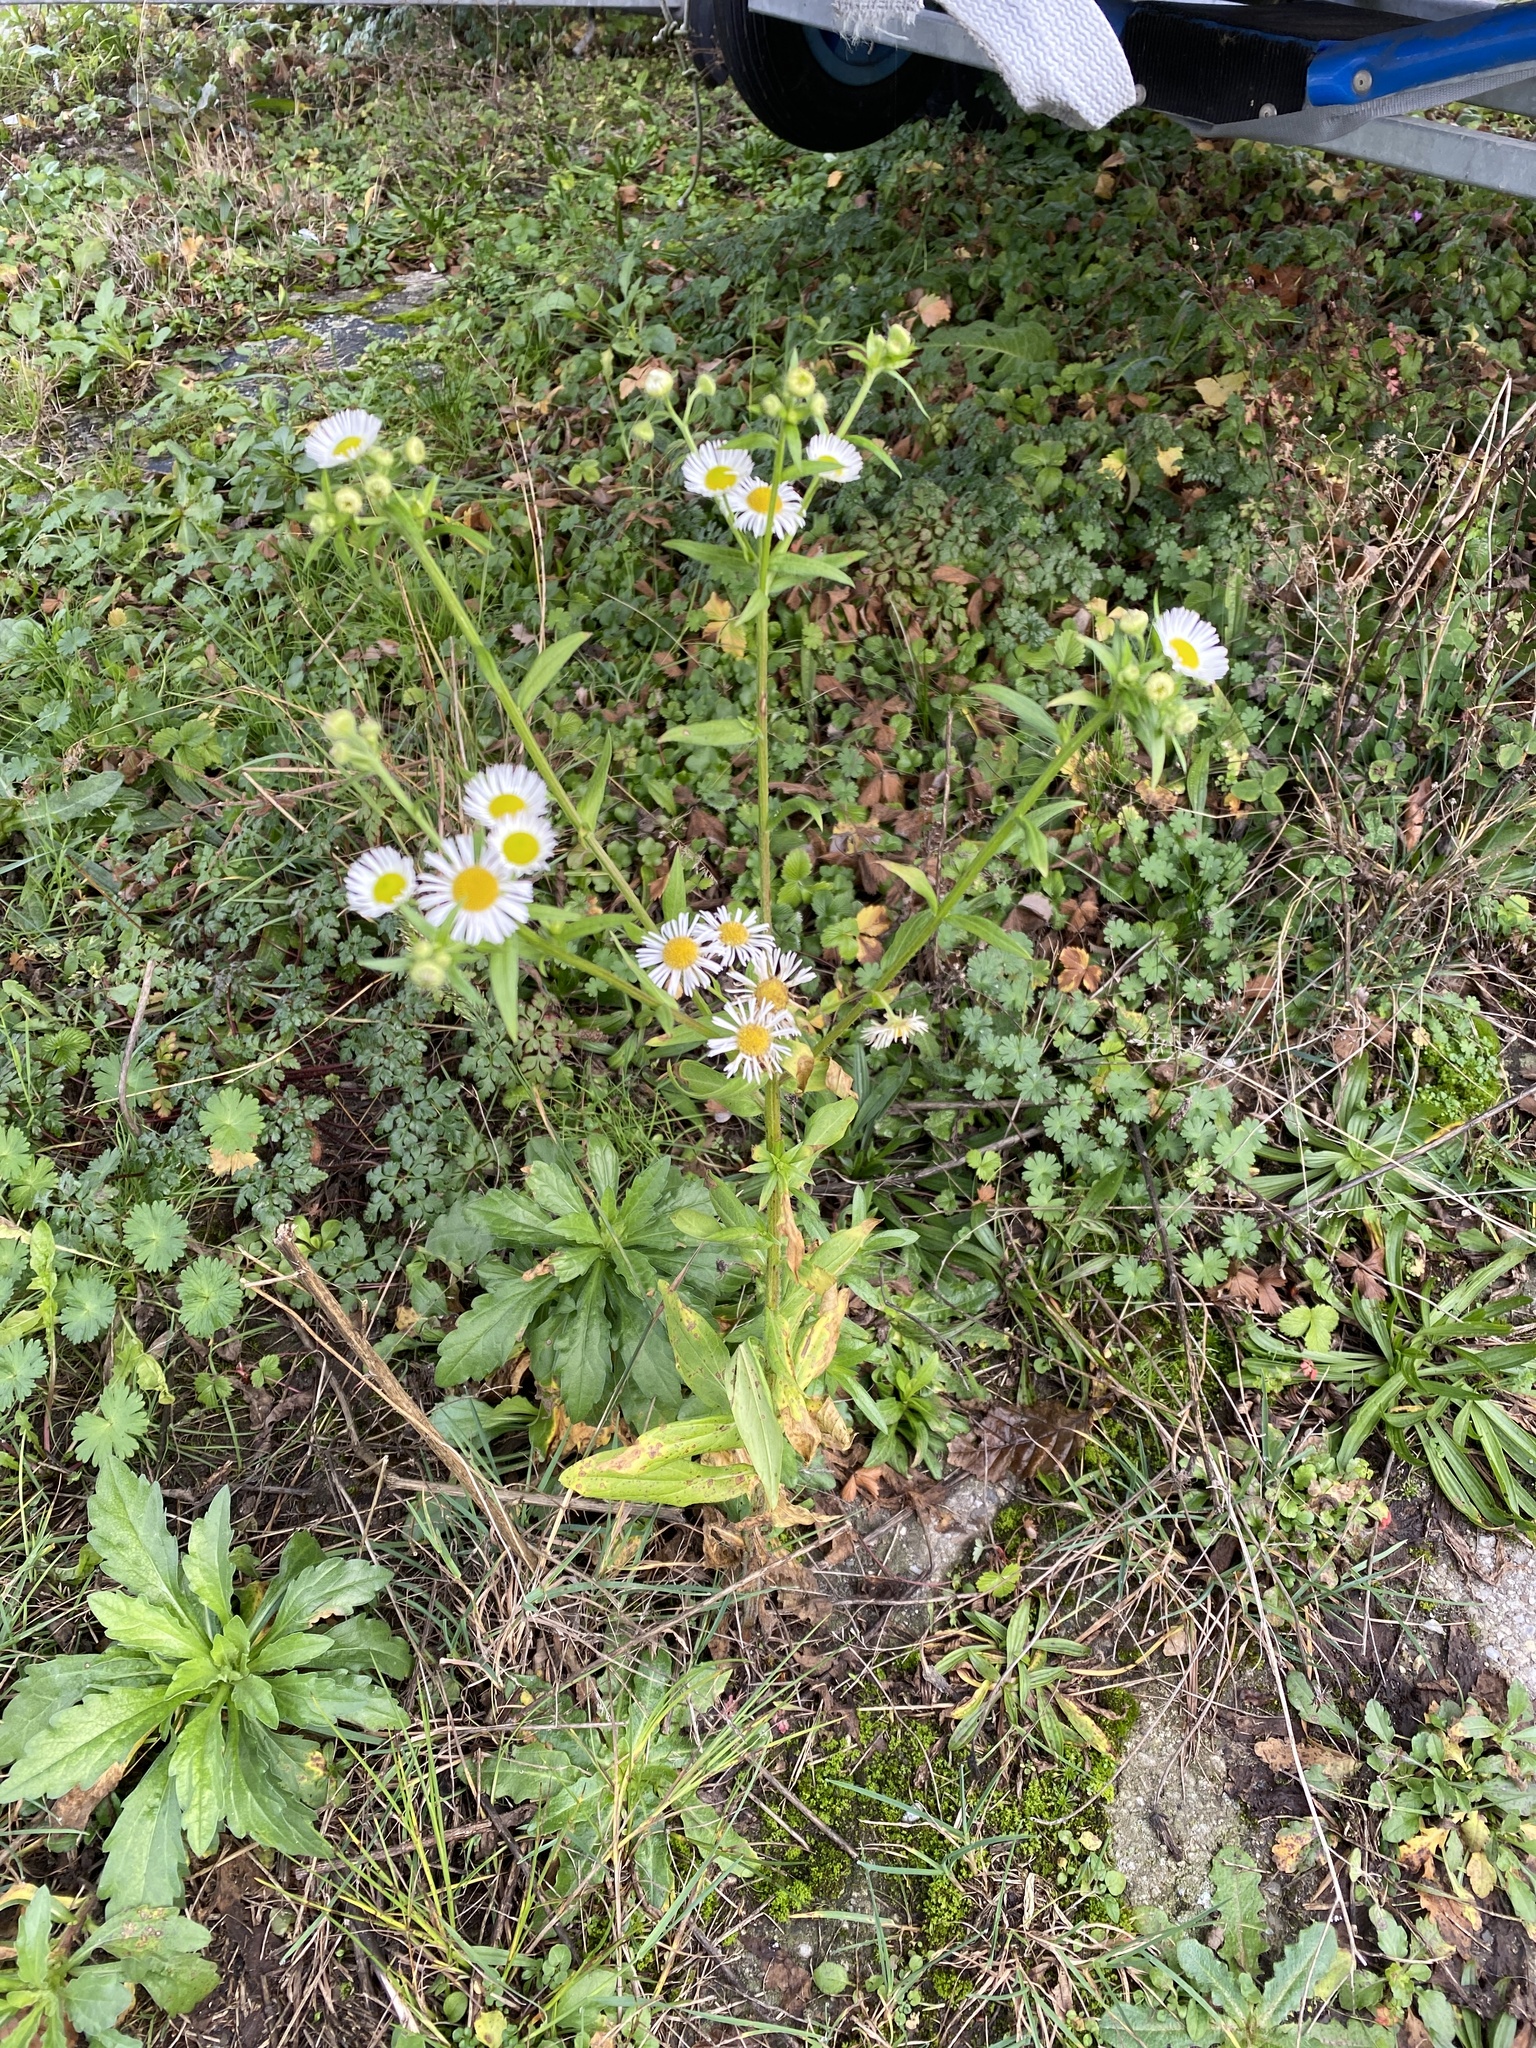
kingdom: Plantae
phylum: Tracheophyta
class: Magnoliopsida
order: Asterales
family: Asteraceae
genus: Erigeron
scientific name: Erigeron annuus
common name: Tall fleabane
